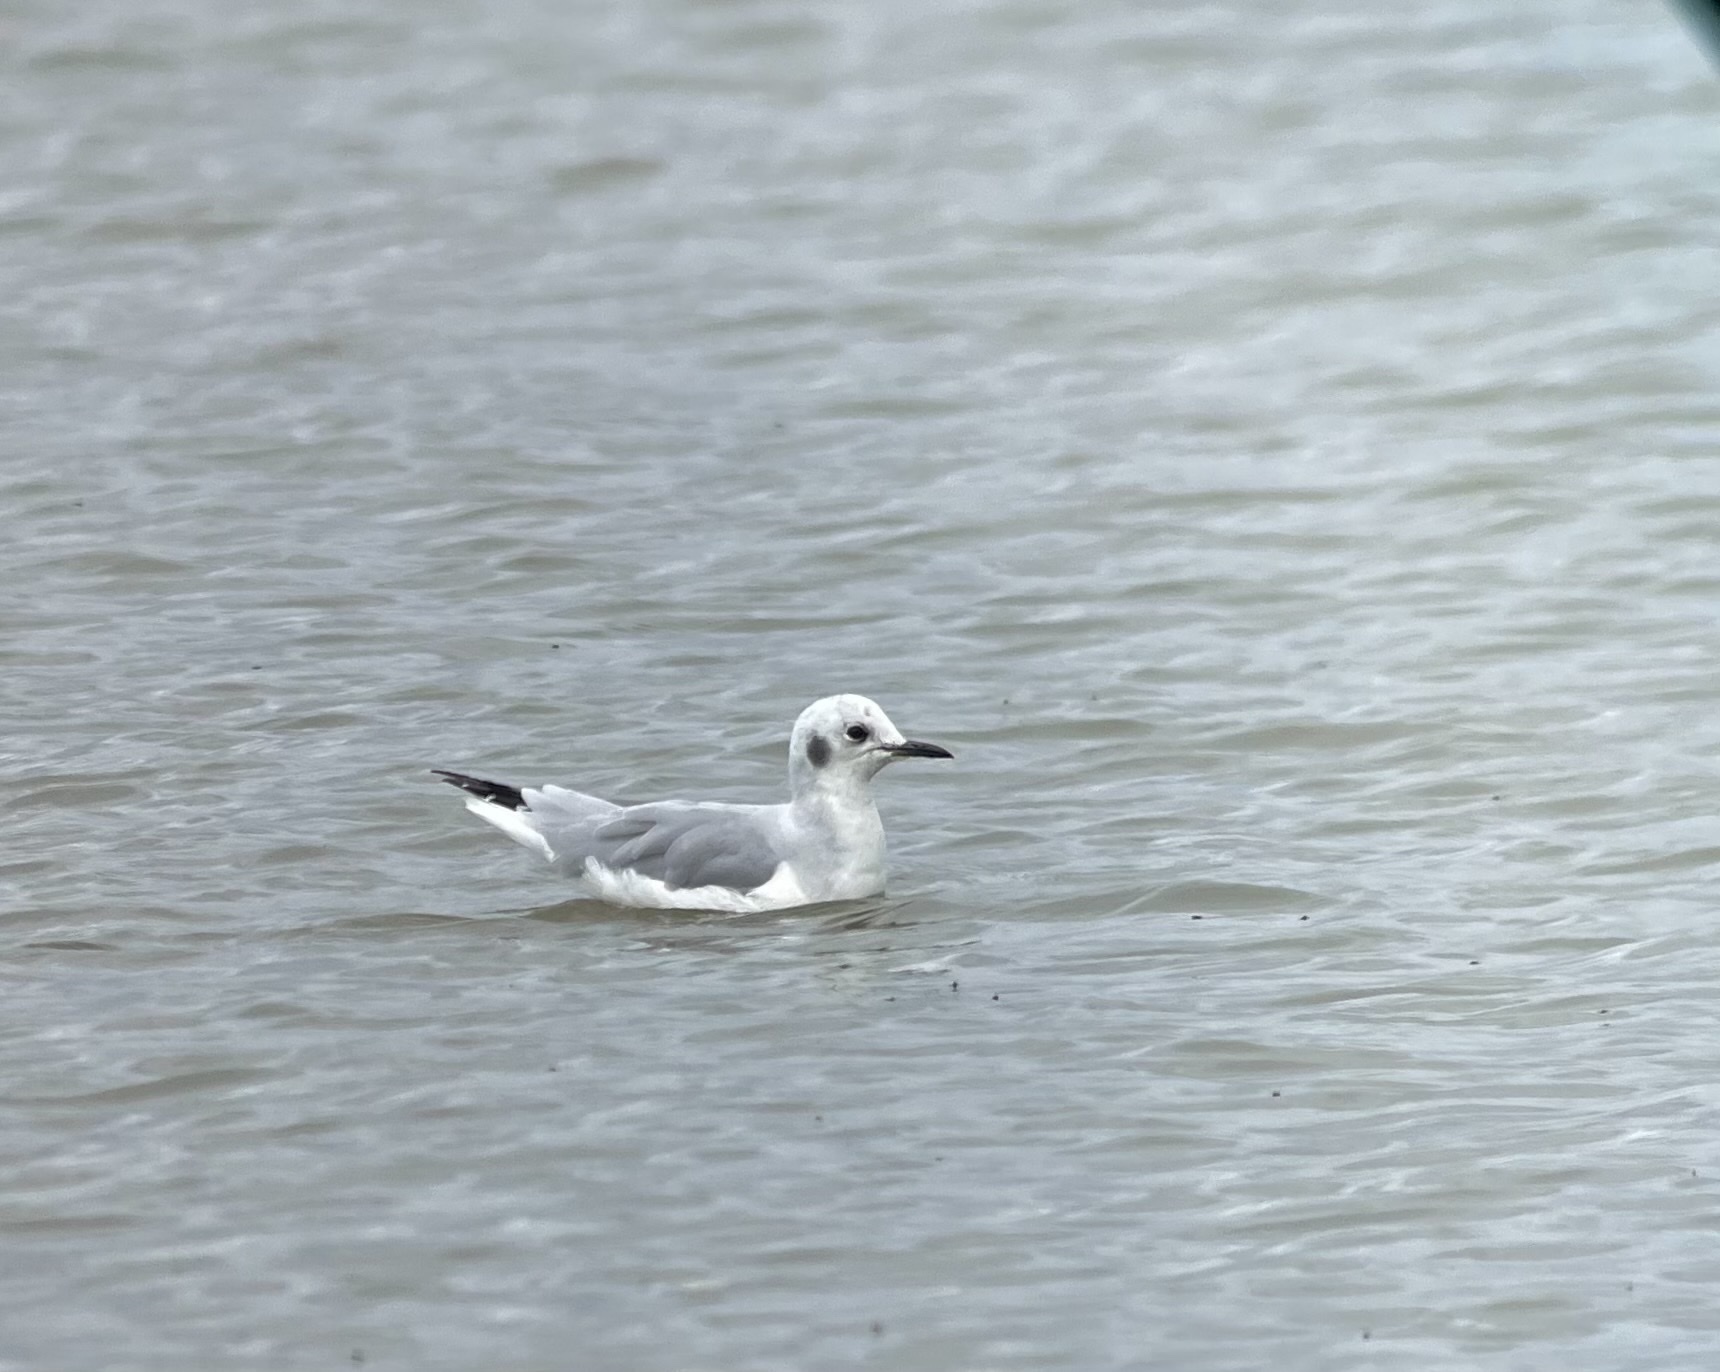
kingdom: Animalia
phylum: Chordata
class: Aves
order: Charadriiformes
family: Laridae
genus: Chroicocephalus
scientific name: Chroicocephalus philadelphia
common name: Bonaparte's gull
